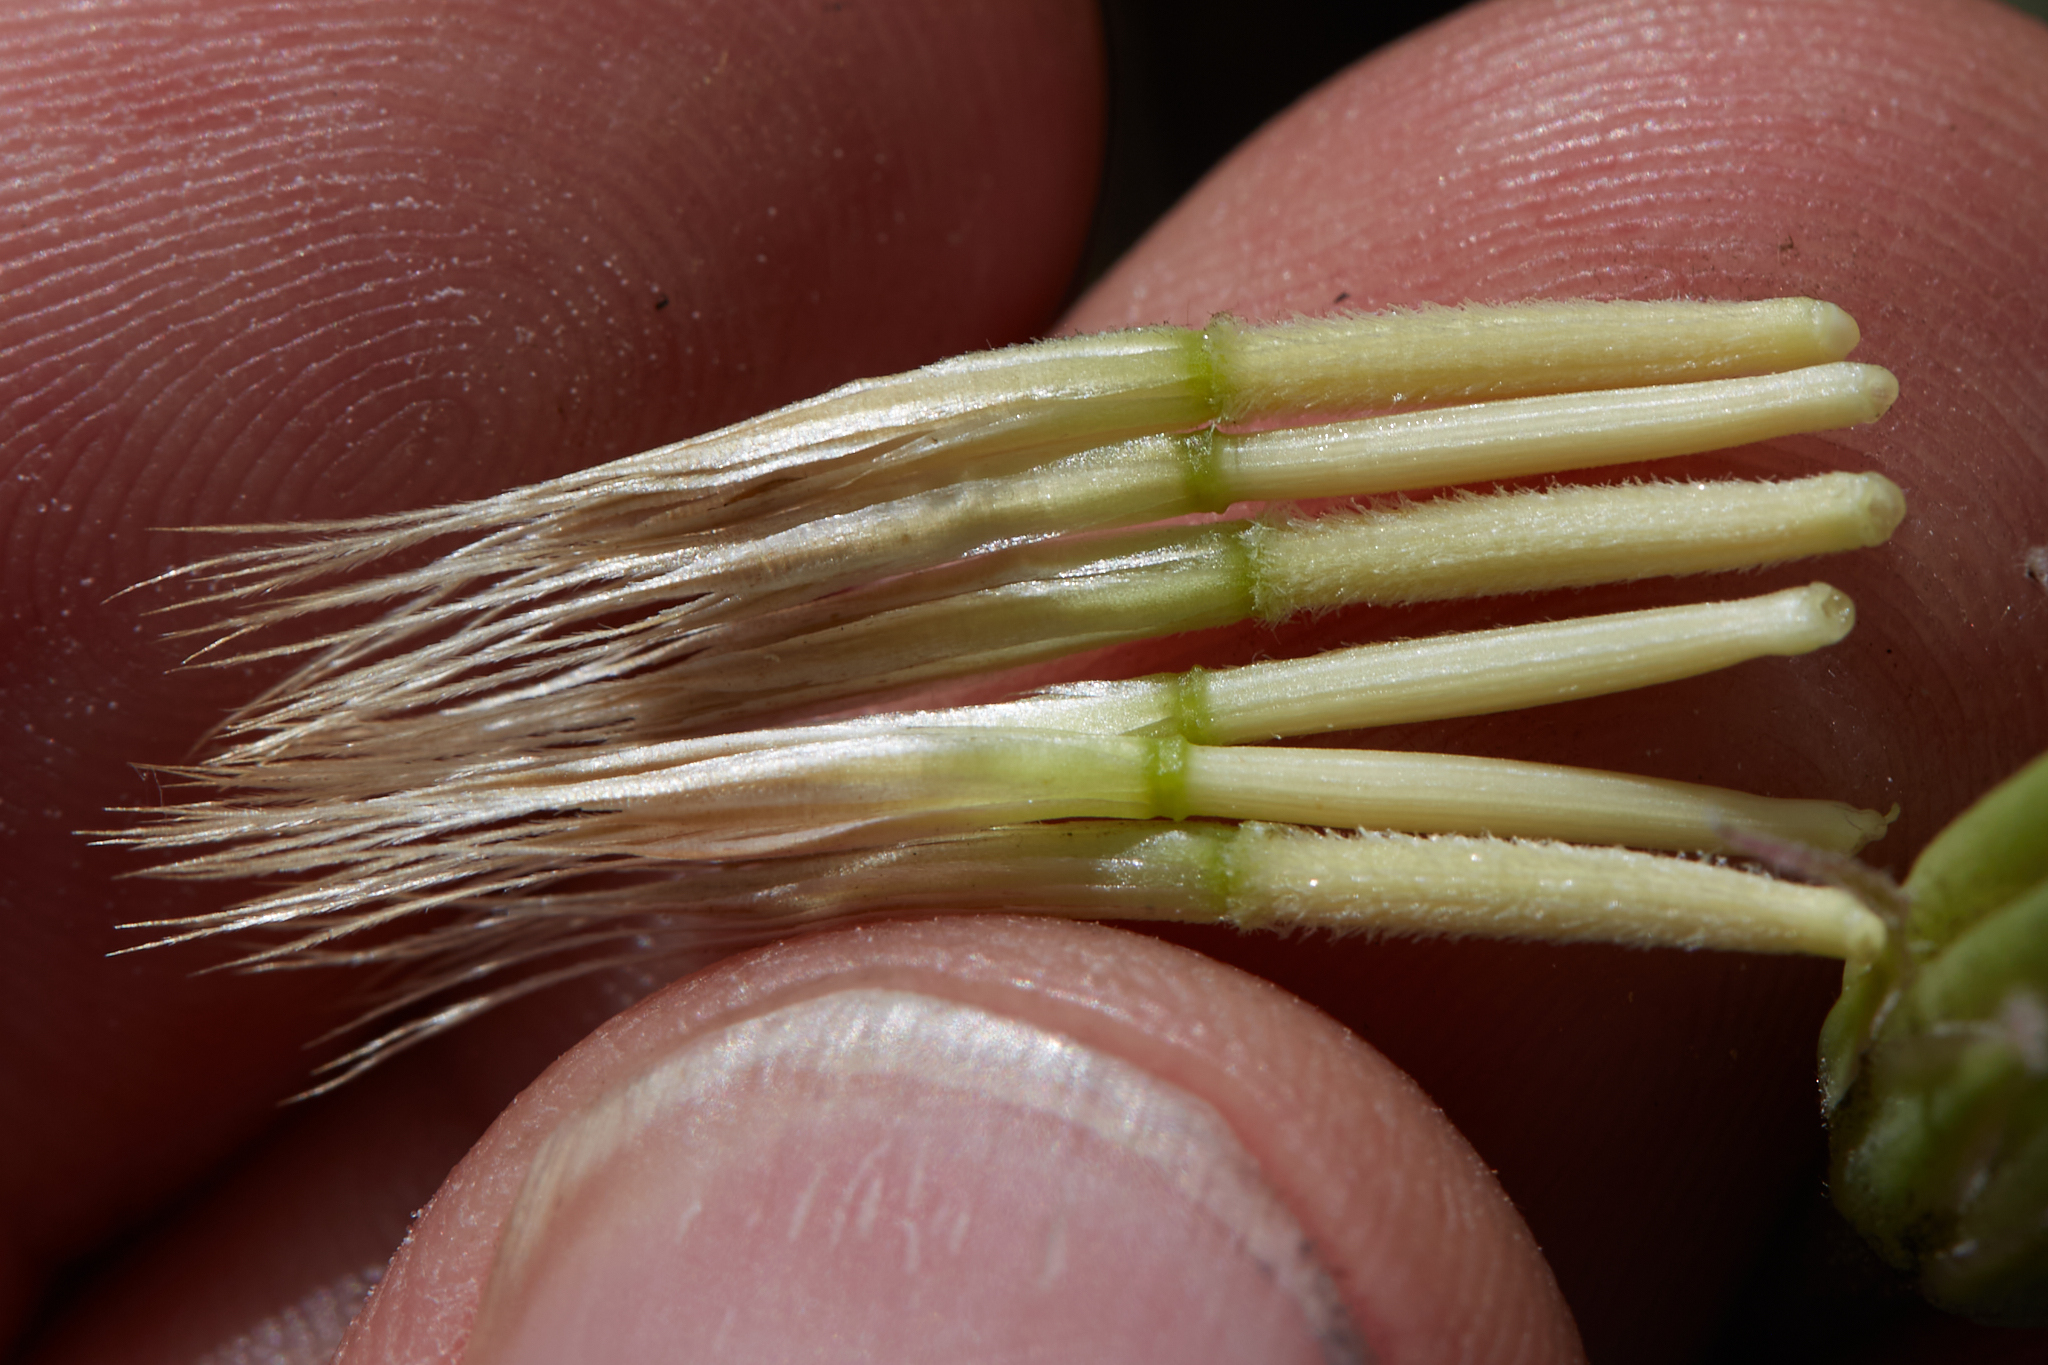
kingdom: Plantae
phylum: Tracheophyta
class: Magnoliopsida
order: Asterales
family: Asteraceae
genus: Microseris
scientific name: Microseris sylvatica
